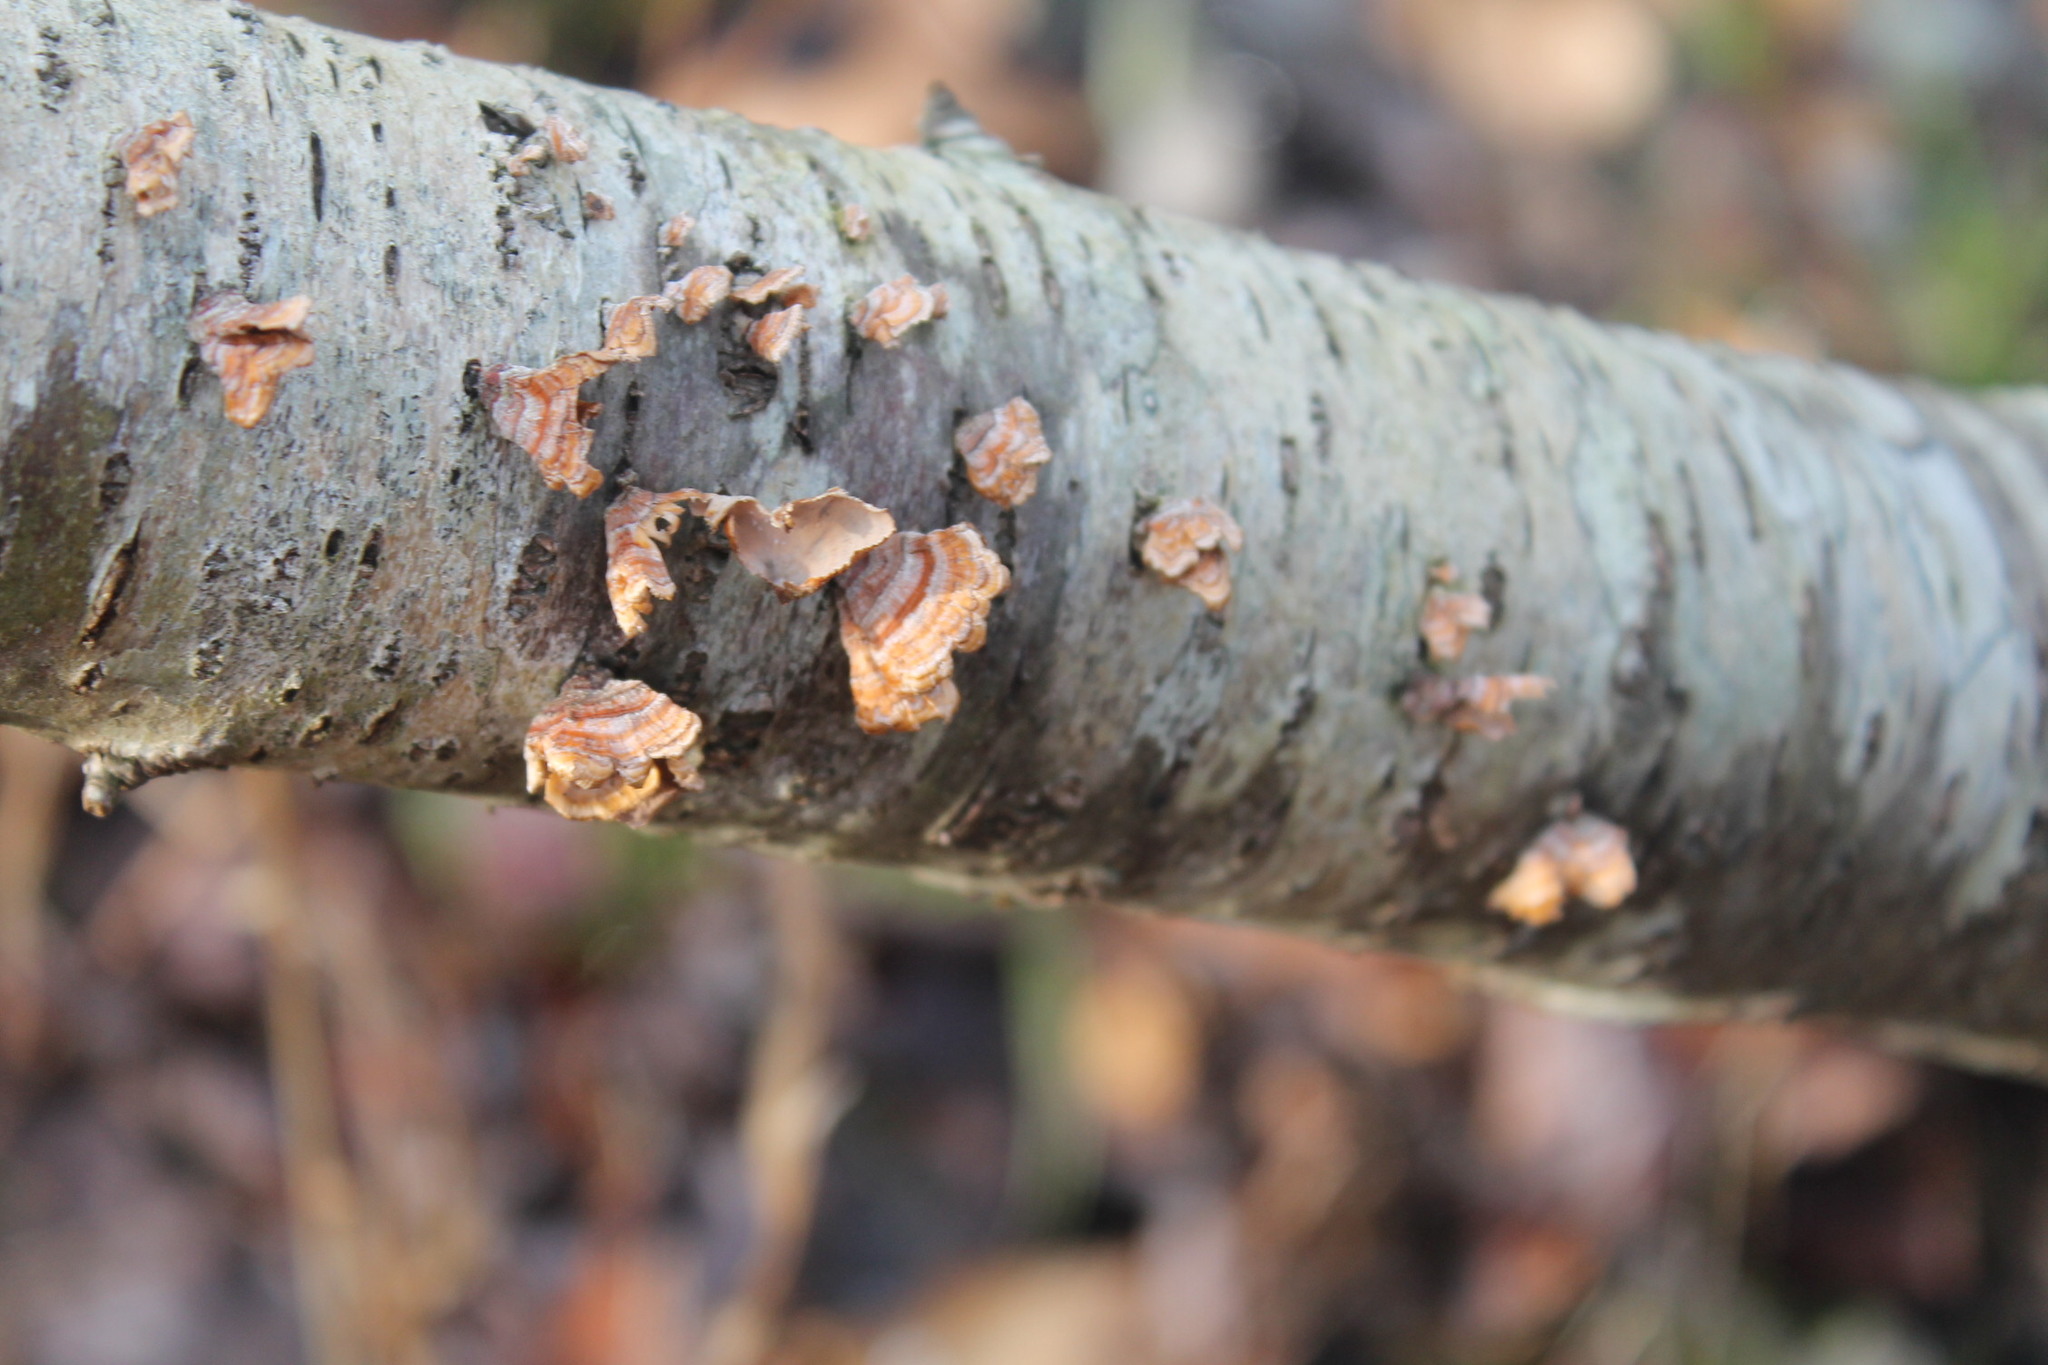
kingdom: Fungi
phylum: Basidiomycota
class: Agaricomycetes
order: Russulales
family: Stereaceae
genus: Stereum
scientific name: Stereum complicatum
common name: Crowded parchment
